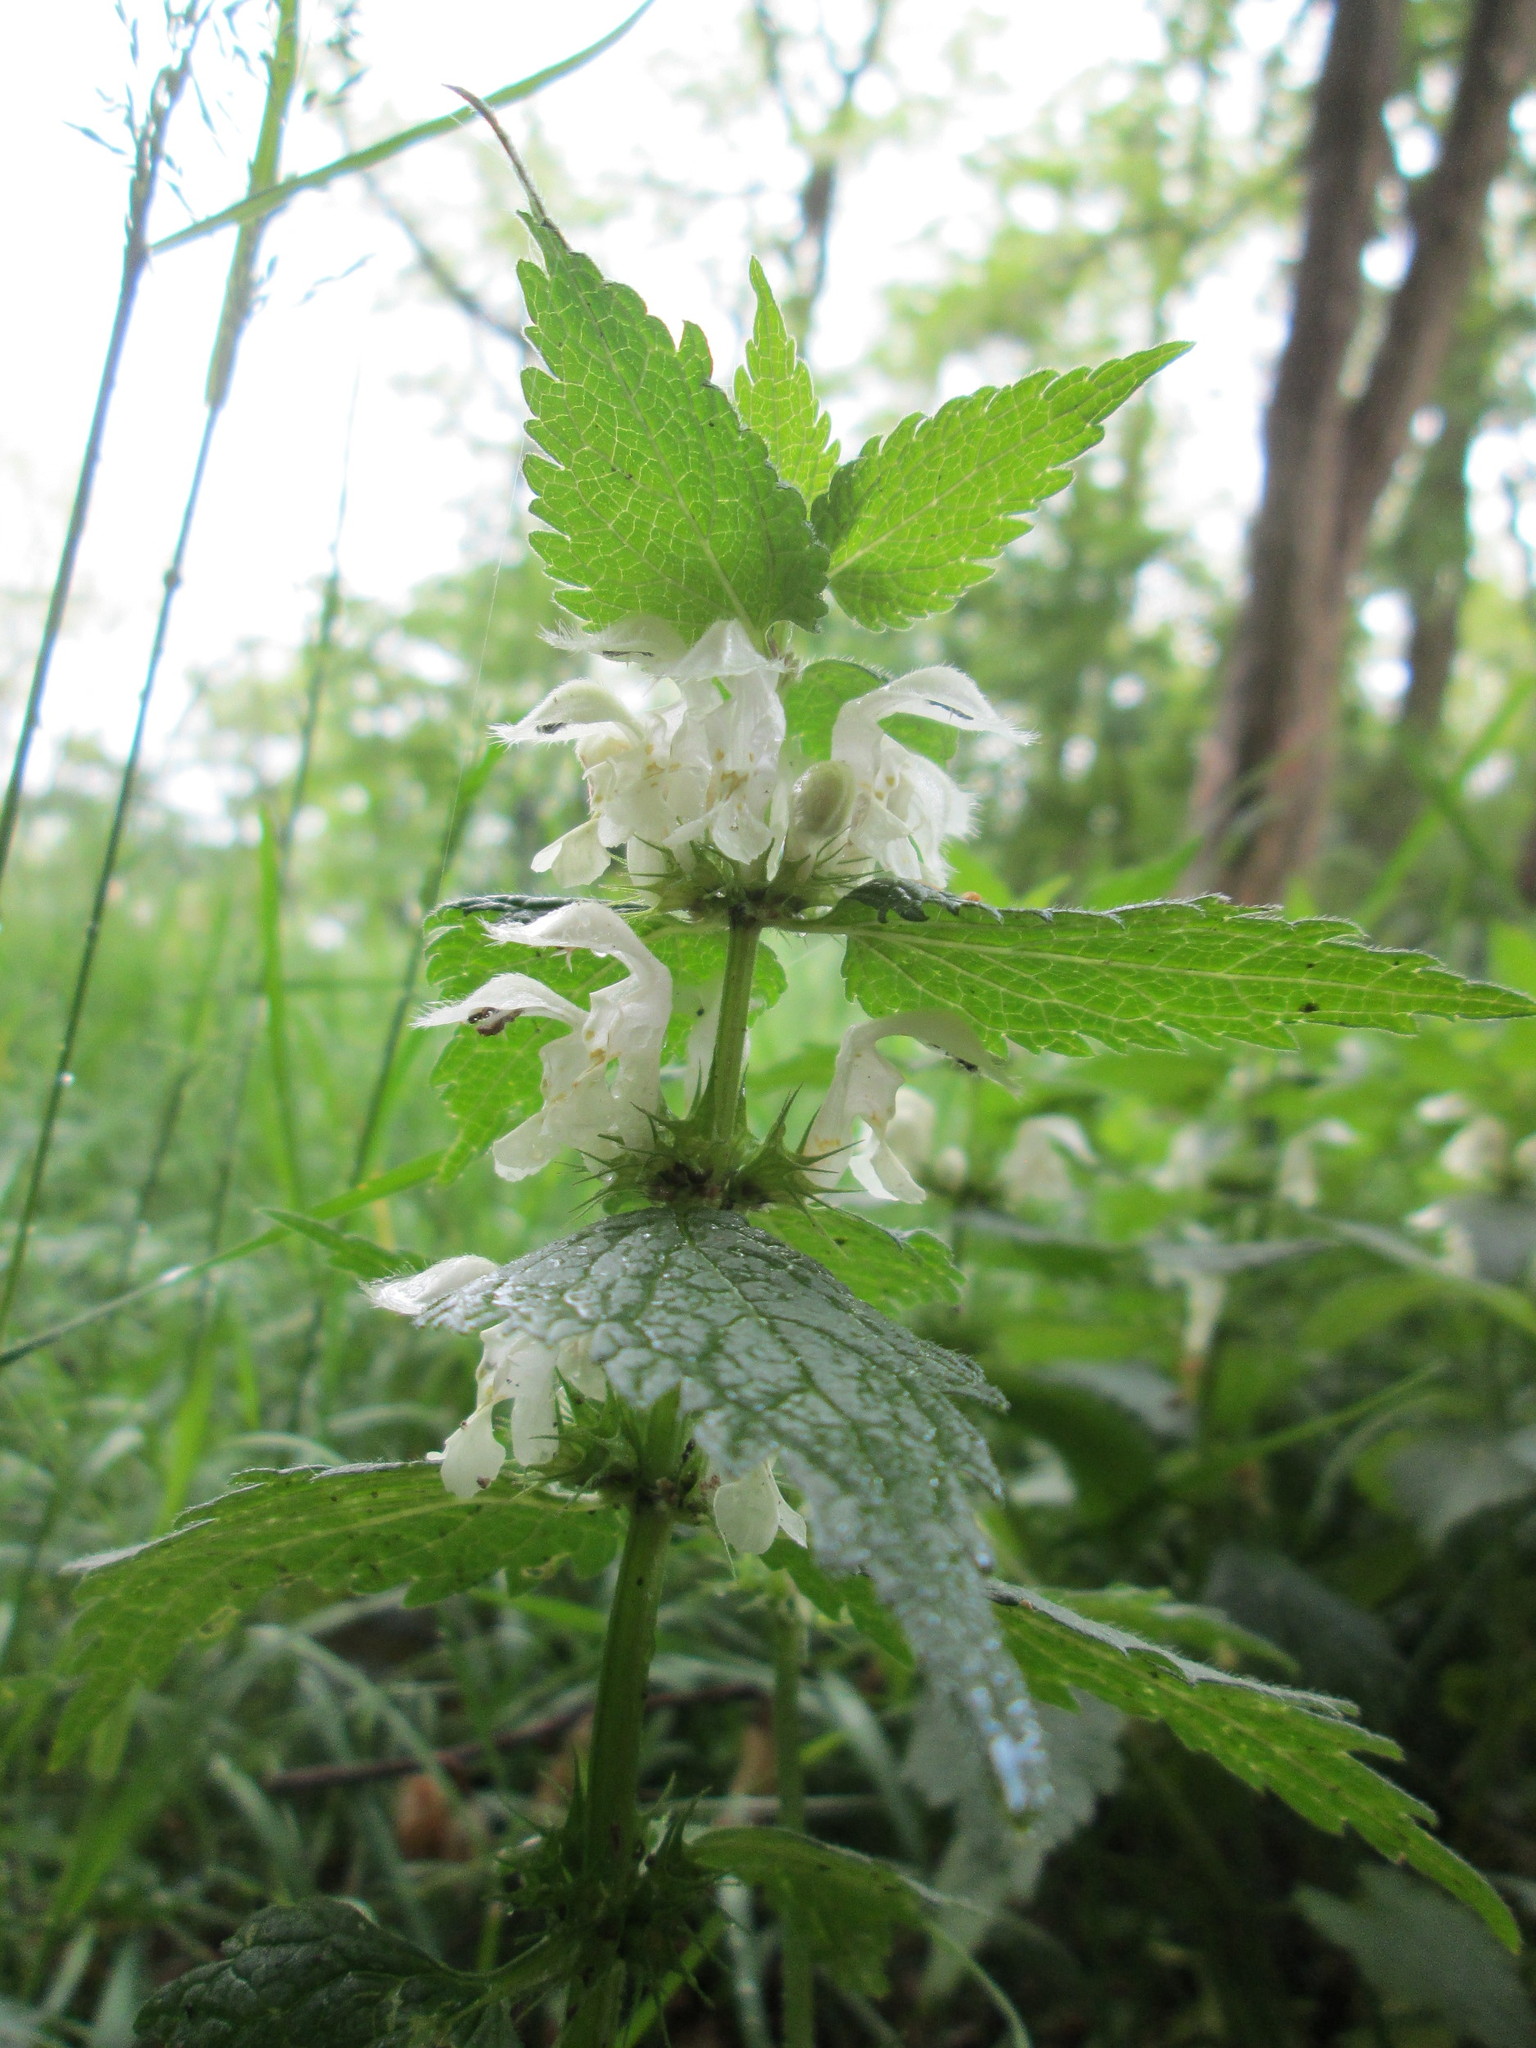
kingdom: Plantae
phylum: Tracheophyta
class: Magnoliopsida
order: Lamiales
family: Lamiaceae
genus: Lamium
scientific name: Lamium album
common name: White dead-nettle
